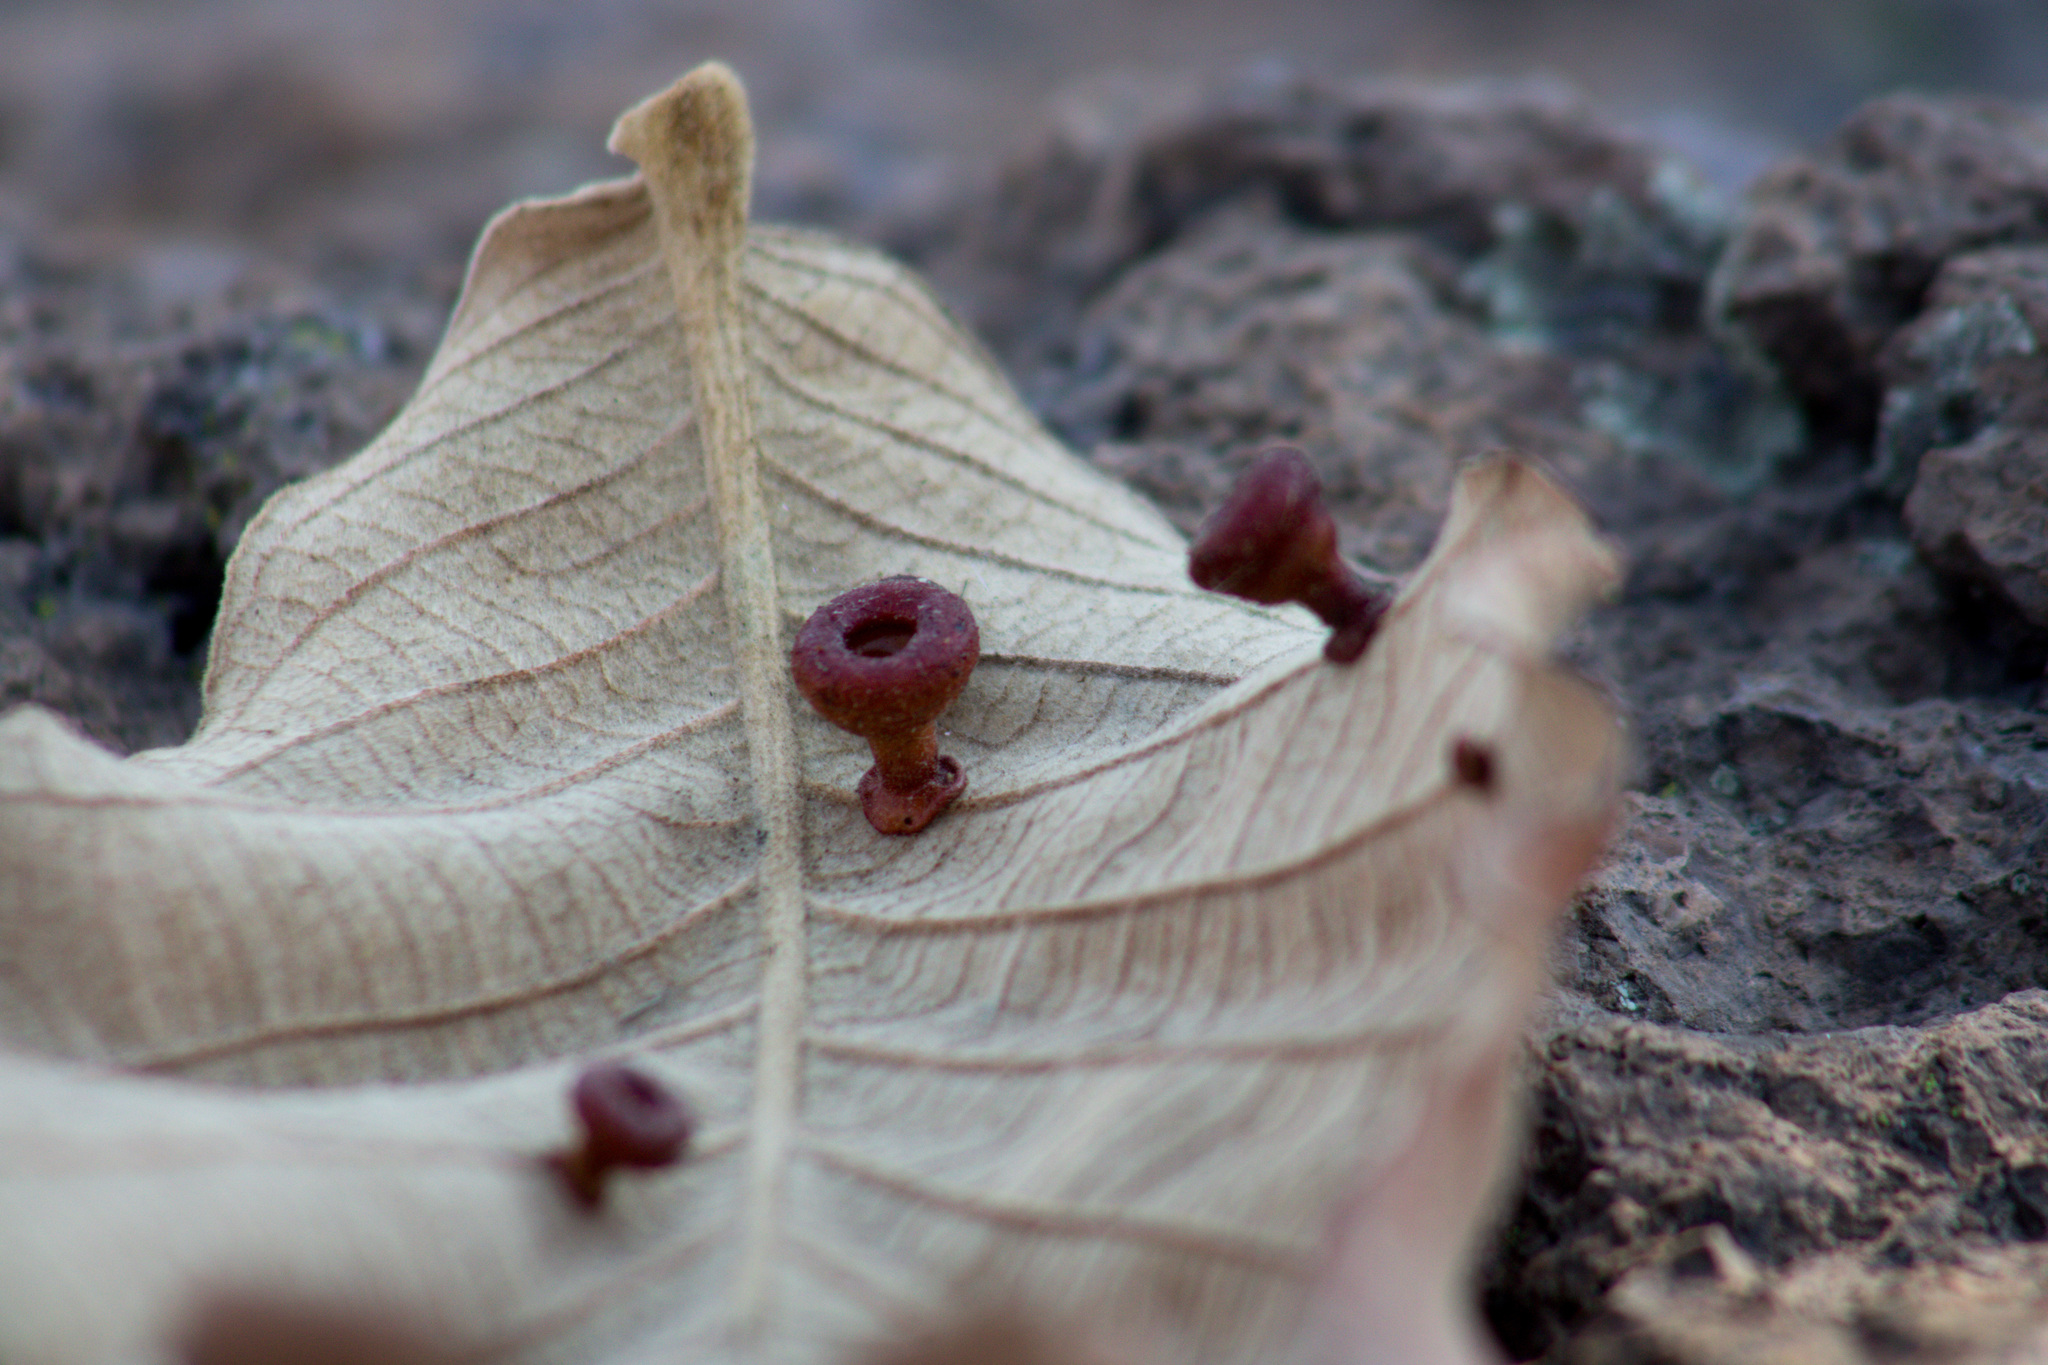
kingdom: Animalia
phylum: Arthropoda
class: Insecta
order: Hymenoptera
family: Cynipidae
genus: Andricus
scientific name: Andricus
